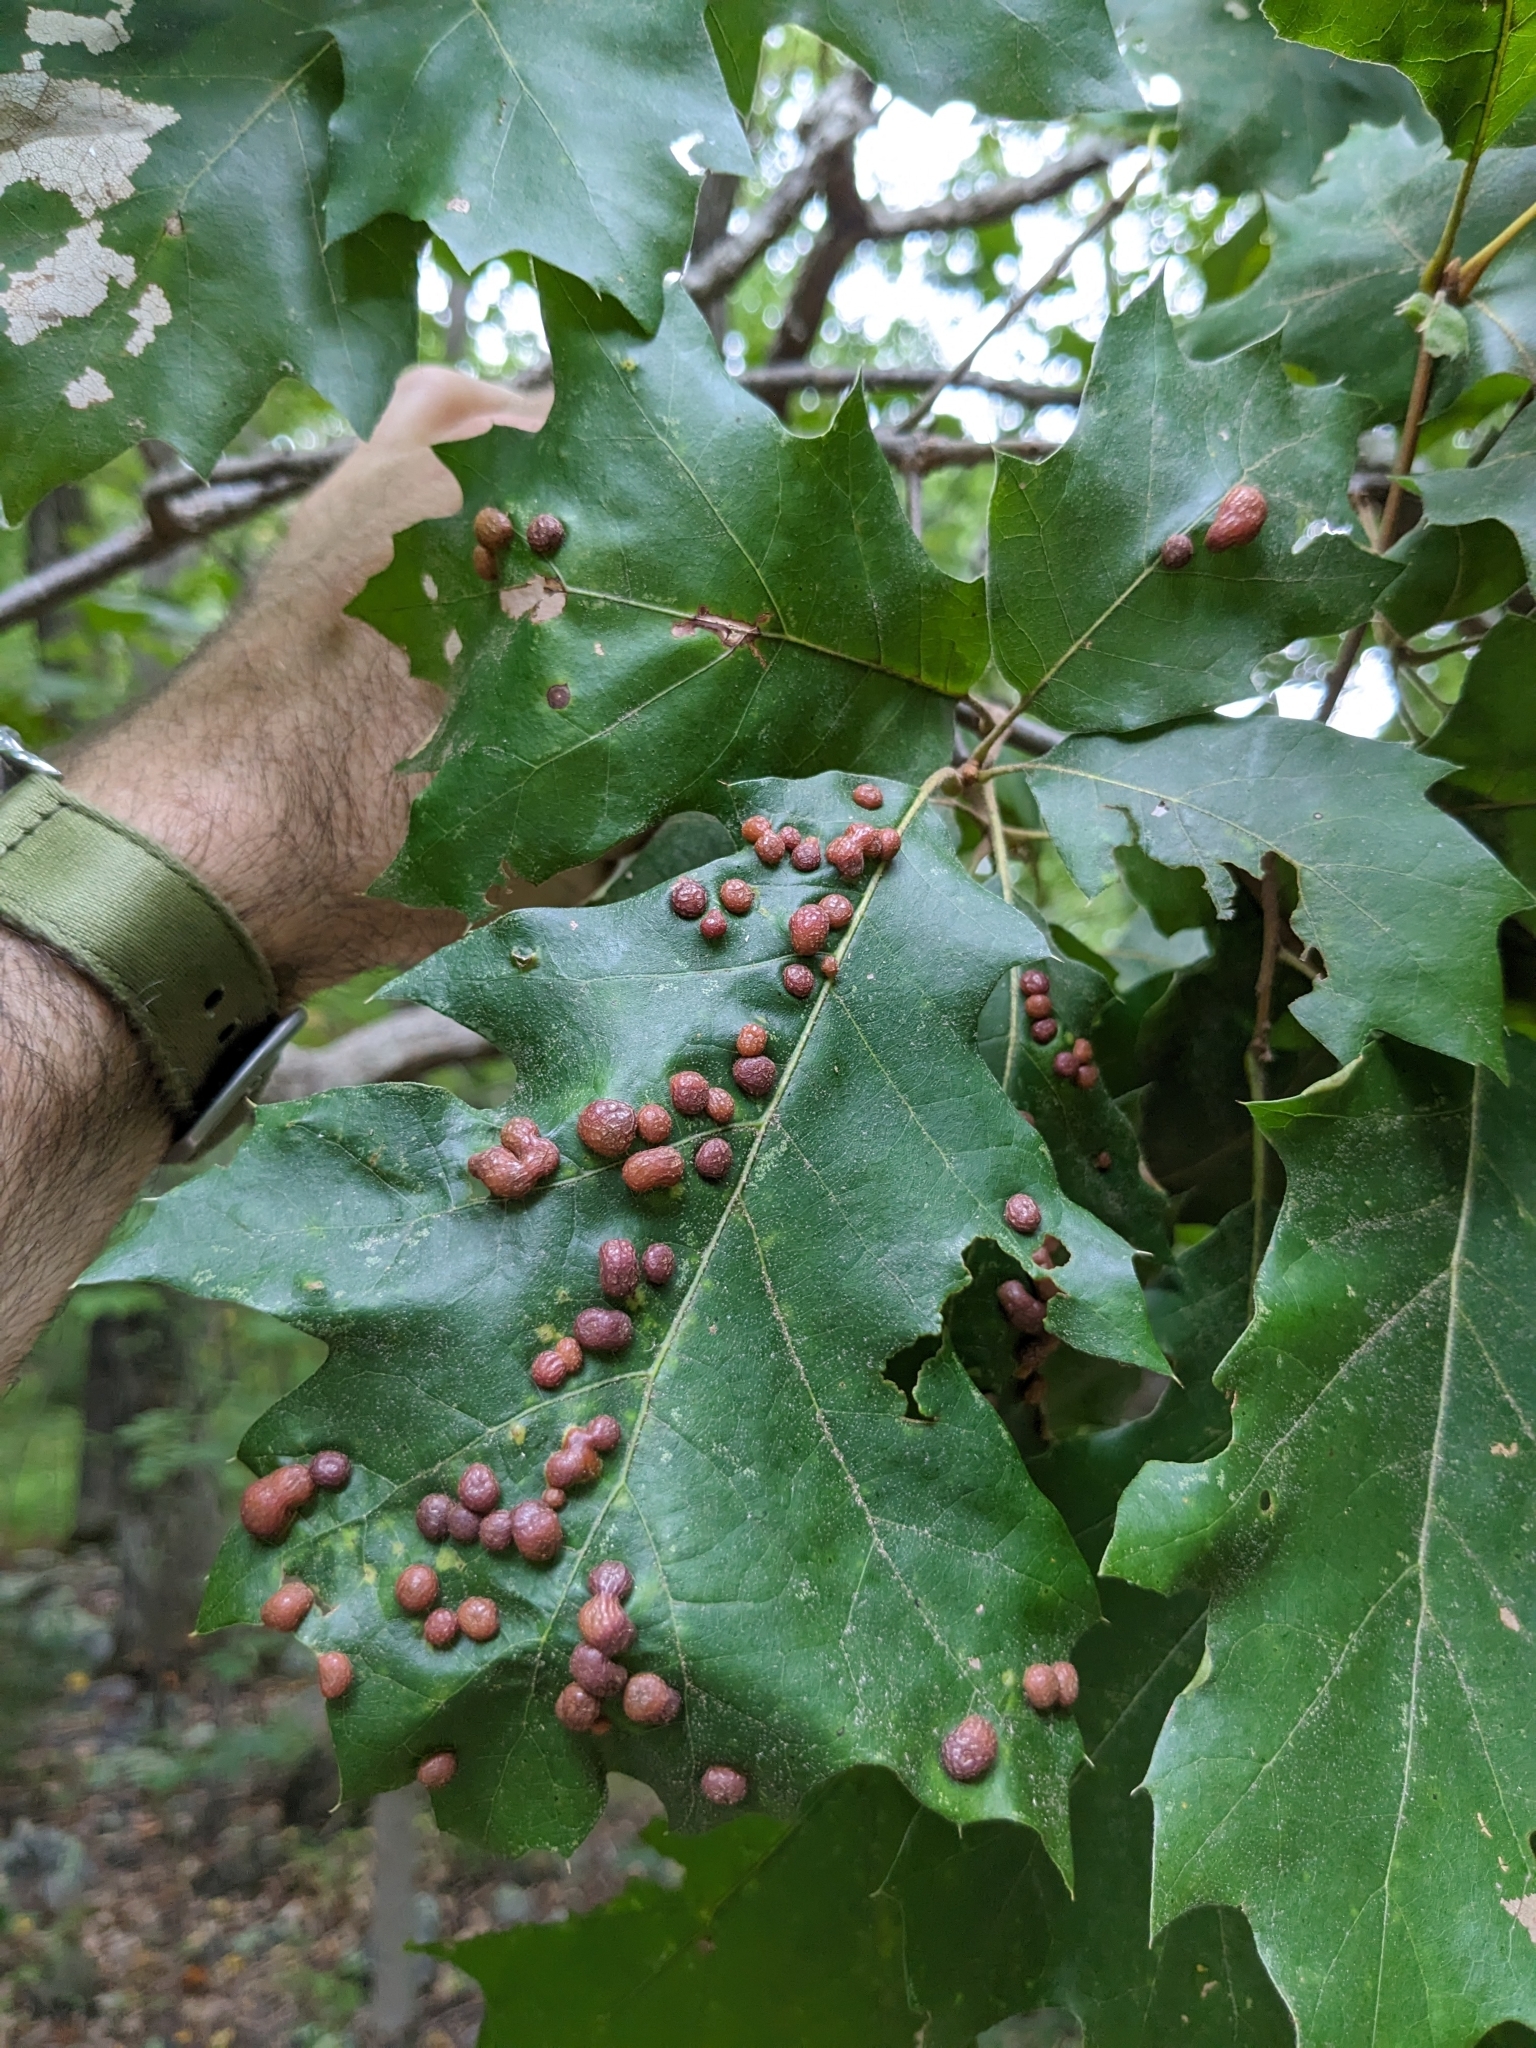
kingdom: Animalia
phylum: Arthropoda
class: Insecta
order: Diptera
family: Cecidomyiidae
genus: Polystepha
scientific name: Polystepha pilulae
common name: Oak leaf gall midge
